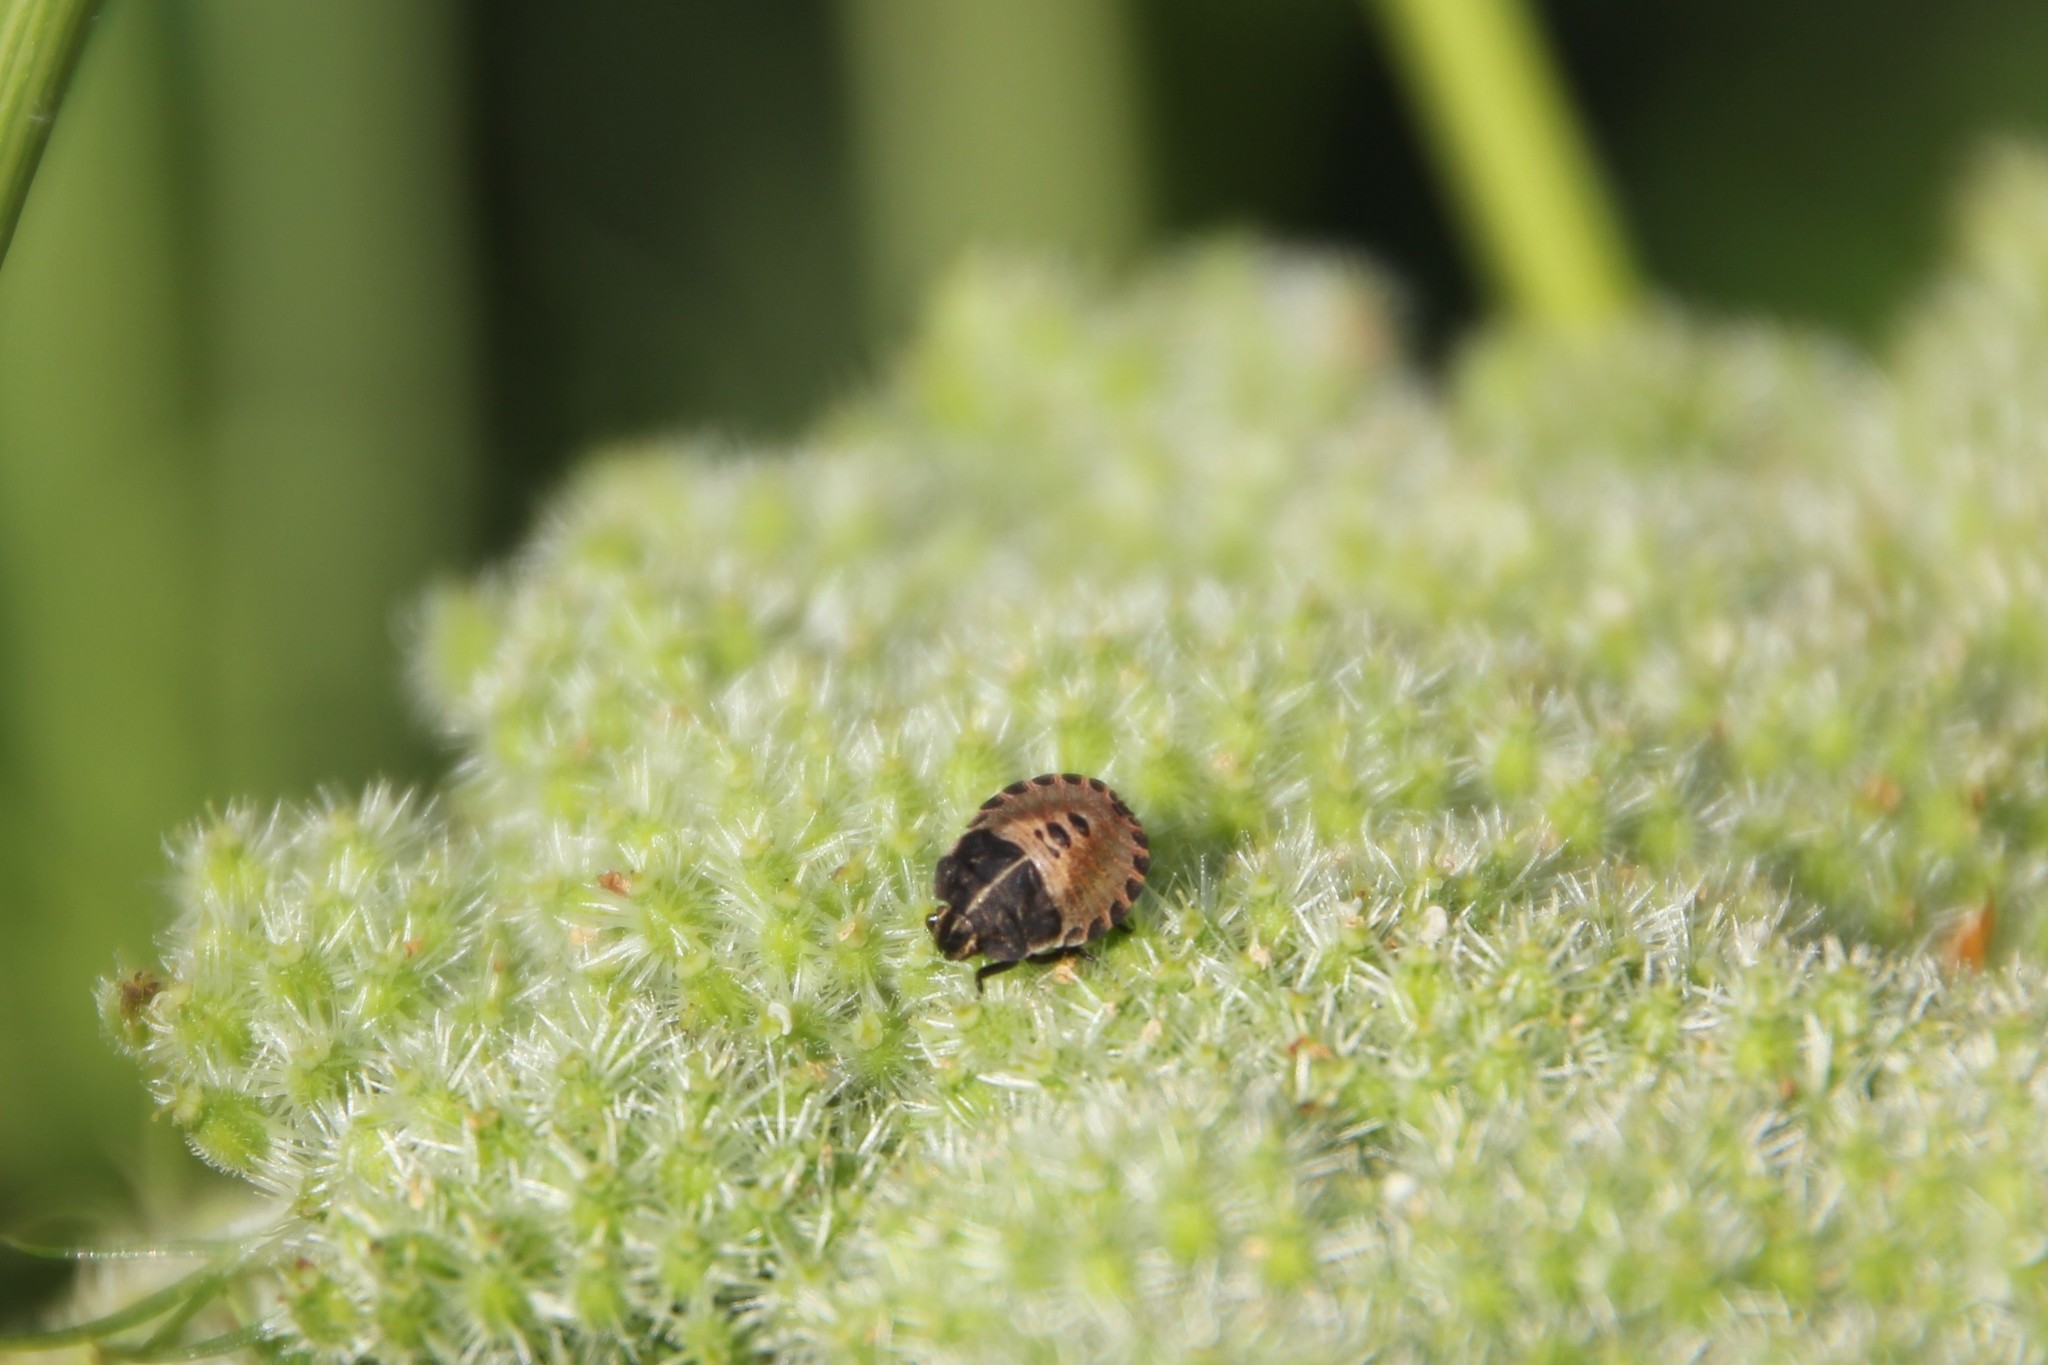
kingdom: Animalia
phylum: Arthropoda
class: Insecta
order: Hemiptera
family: Pentatomidae
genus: Graphosoma
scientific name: Graphosoma italicum
